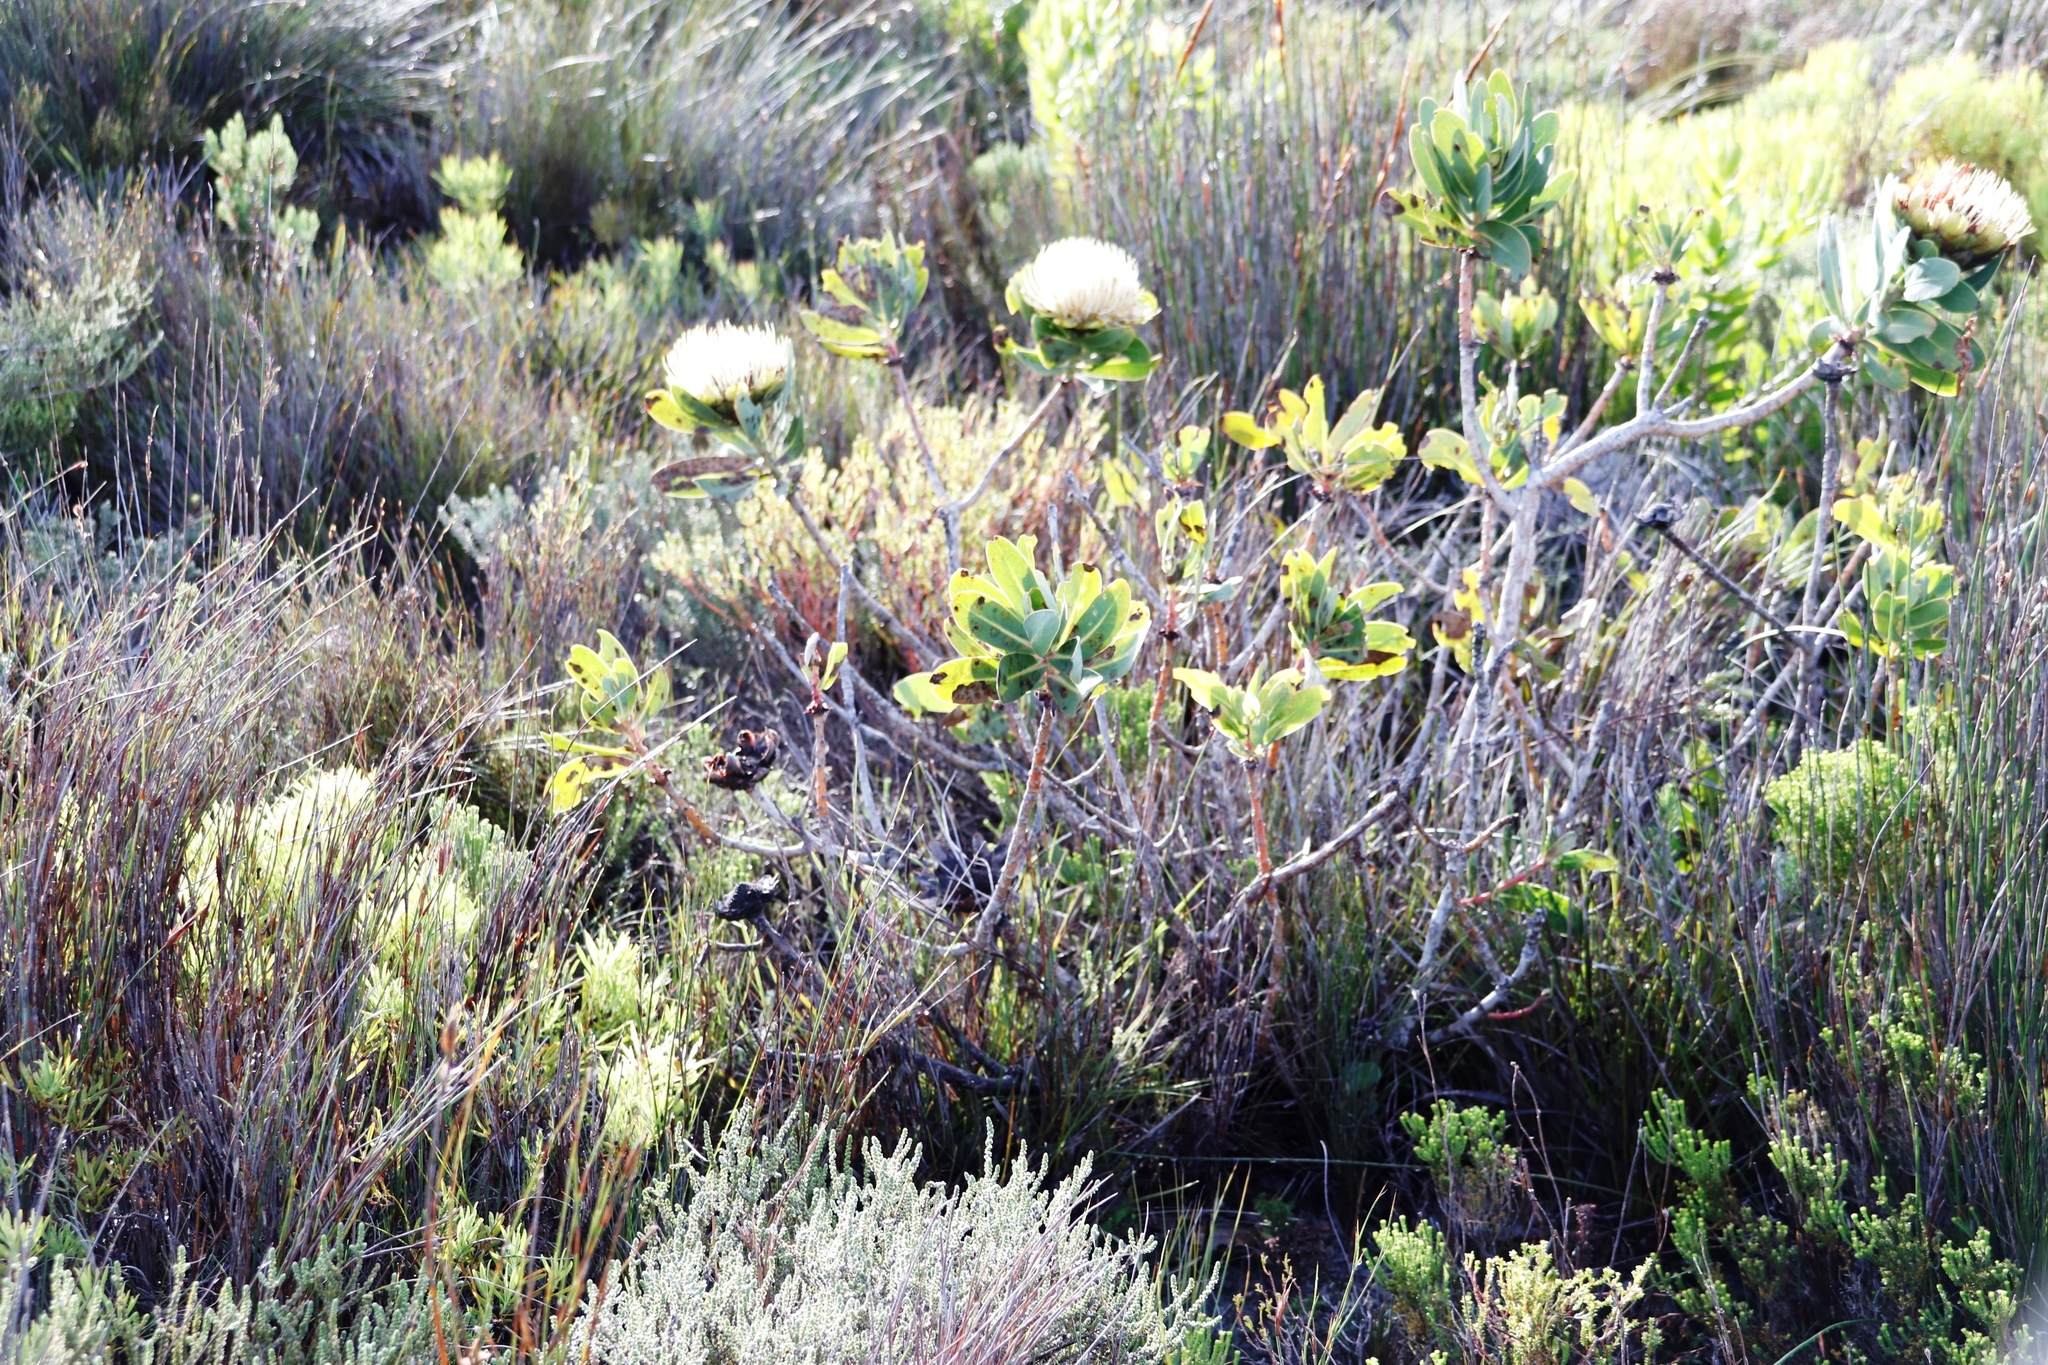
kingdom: Plantae
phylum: Tracheophyta
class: Magnoliopsida
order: Proteales
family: Proteaceae
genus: Protea
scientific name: Protea nitida
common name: Tree protea
